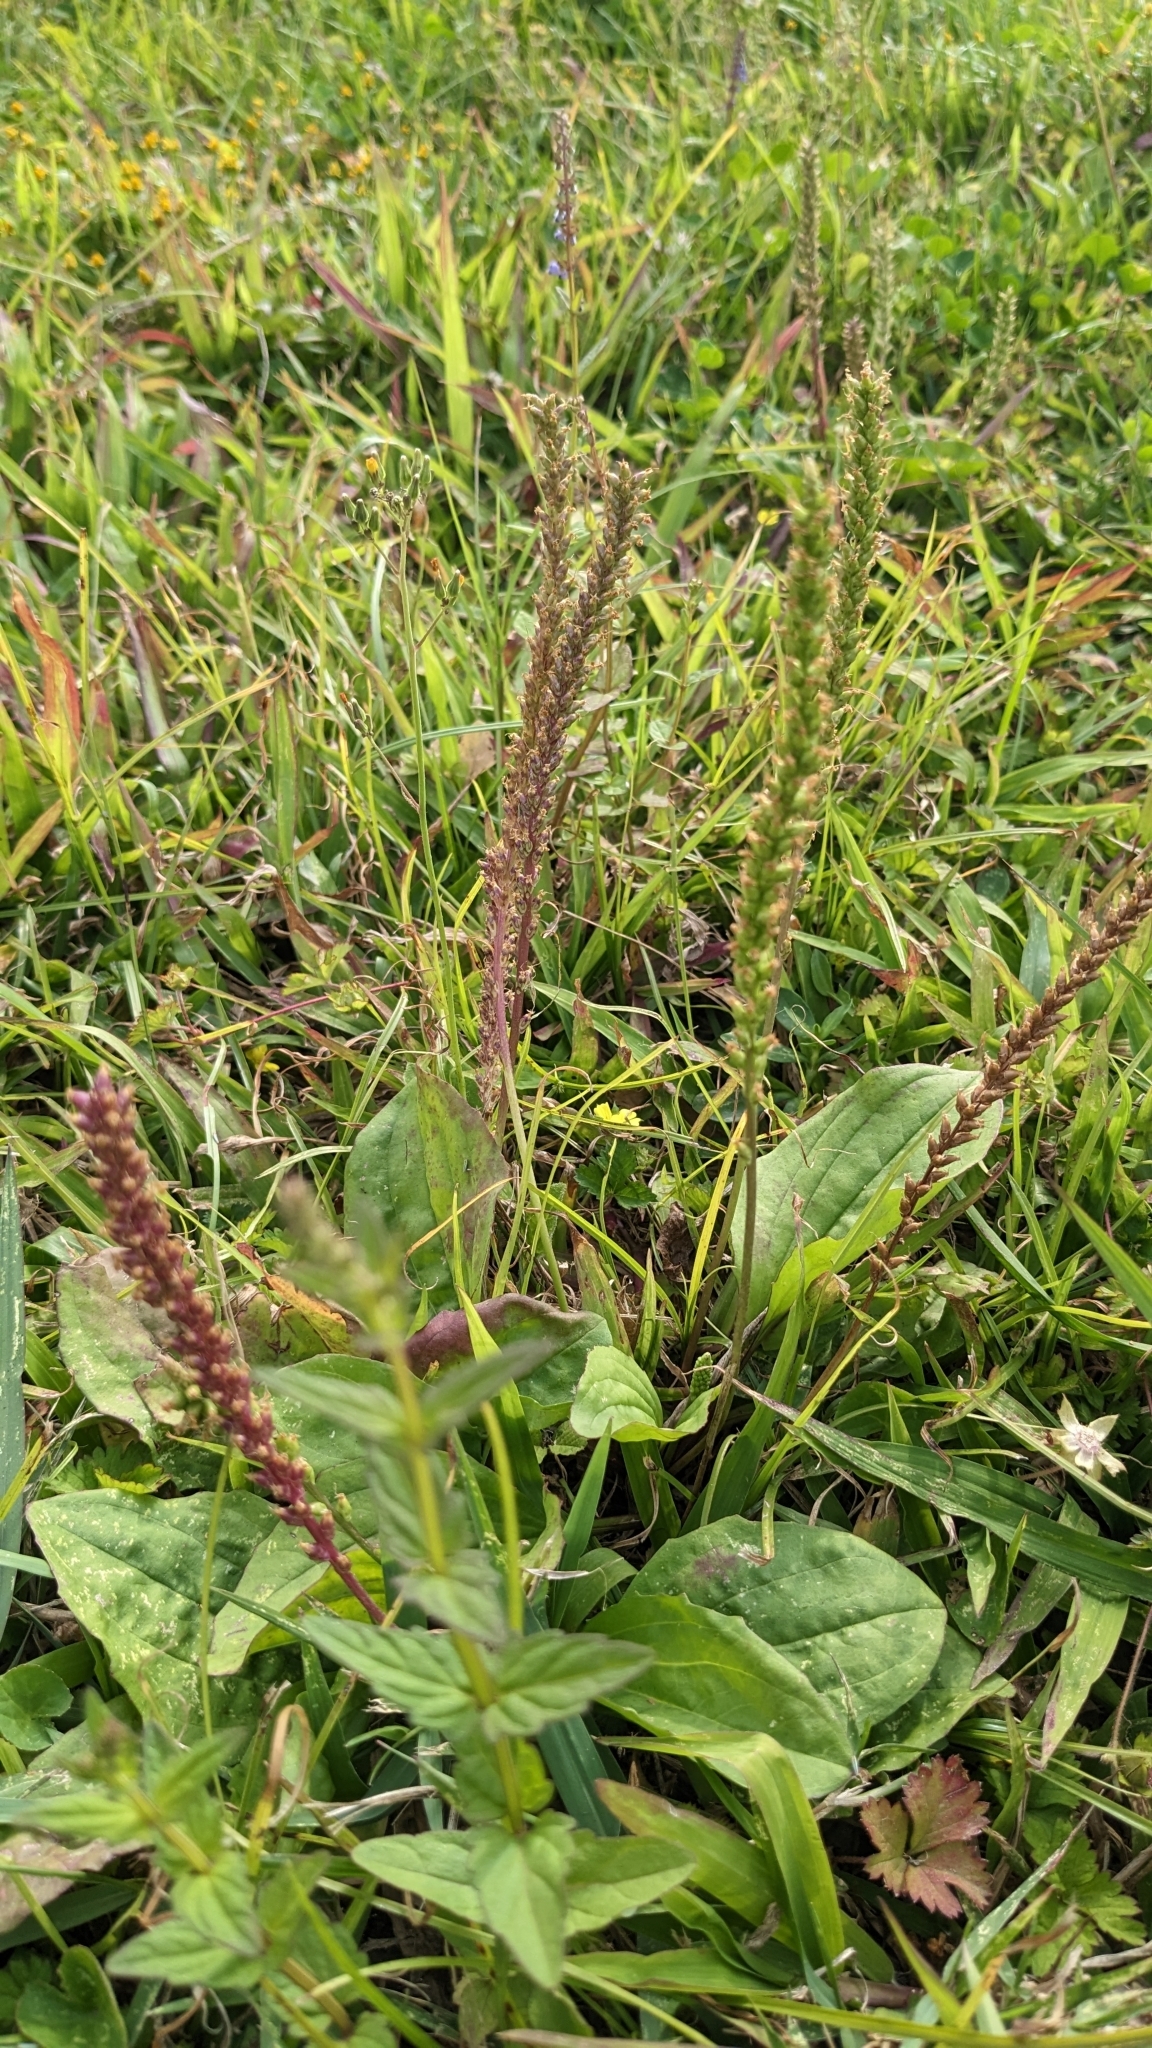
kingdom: Plantae
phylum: Tracheophyta
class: Magnoliopsida
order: Lamiales
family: Plantaginaceae
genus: Plantago
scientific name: Plantago asiatica
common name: Psyllium
